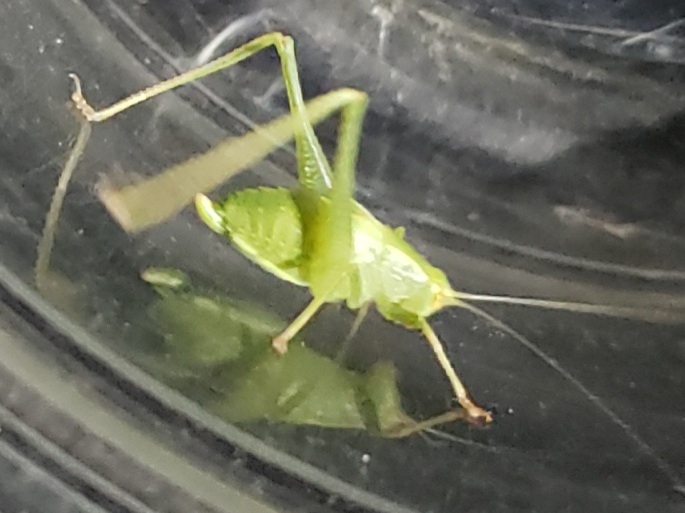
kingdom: Animalia
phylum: Arthropoda
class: Insecta
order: Orthoptera
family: Tettigoniidae
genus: Montezumina
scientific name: Montezumina modesta
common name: Modest katydid
